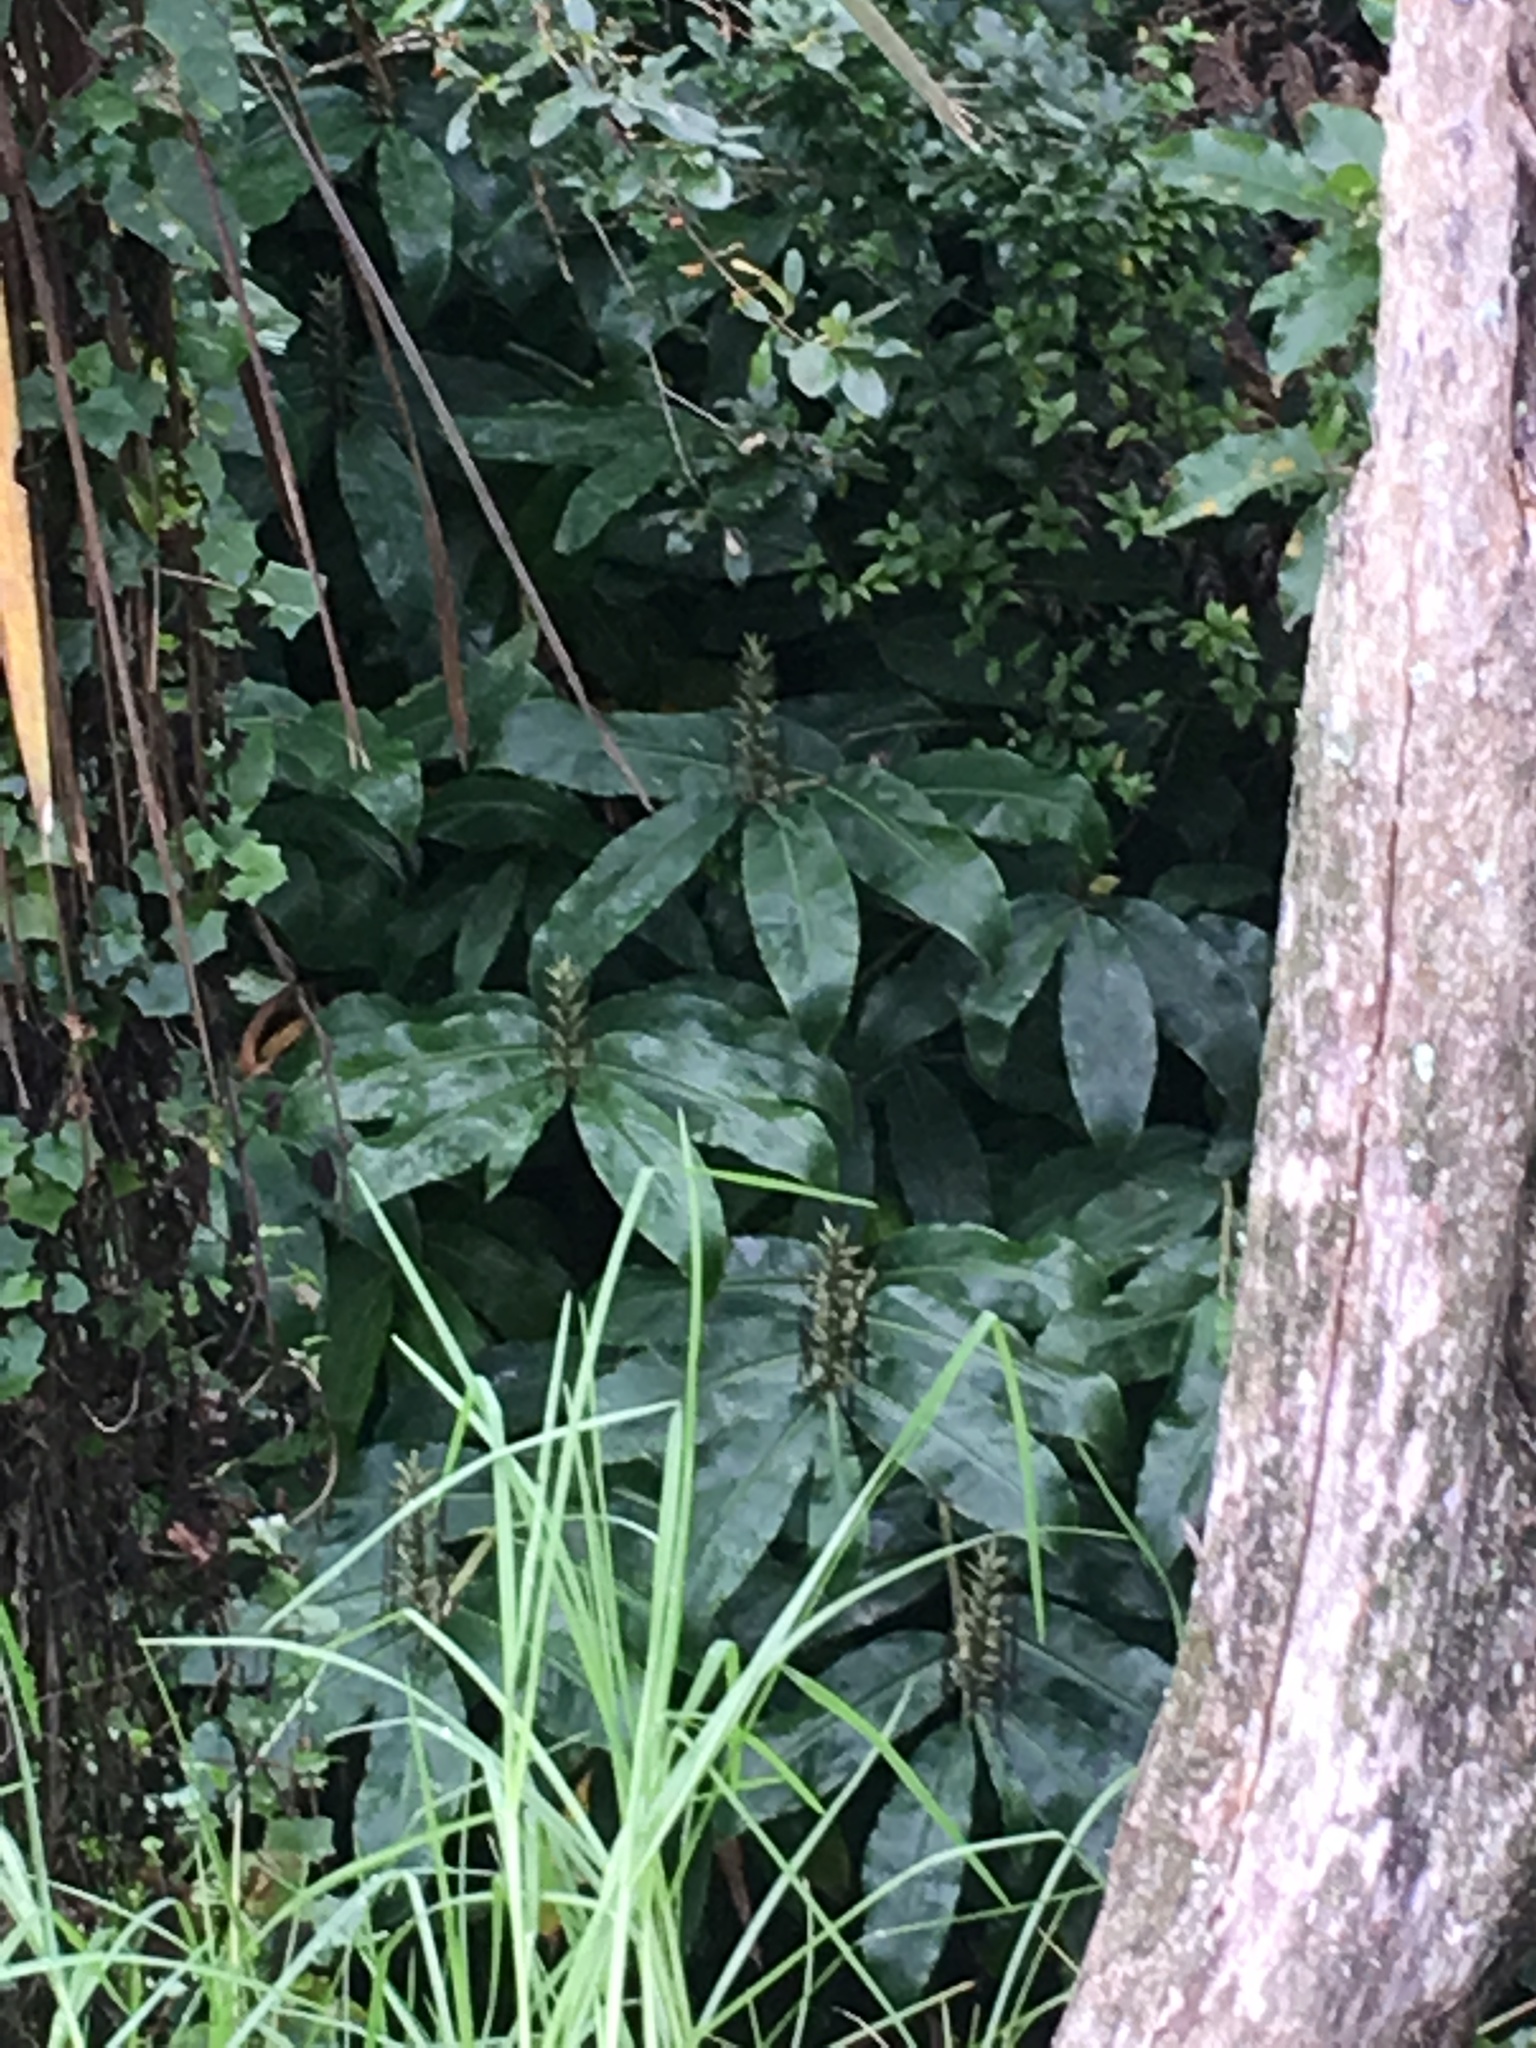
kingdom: Plantae
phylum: Tracheophyta
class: Liliopsida
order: Zingiberales
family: Zingiberaceae
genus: Hedychium
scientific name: Hedychium gardnerianum
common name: Himalayan ginger
